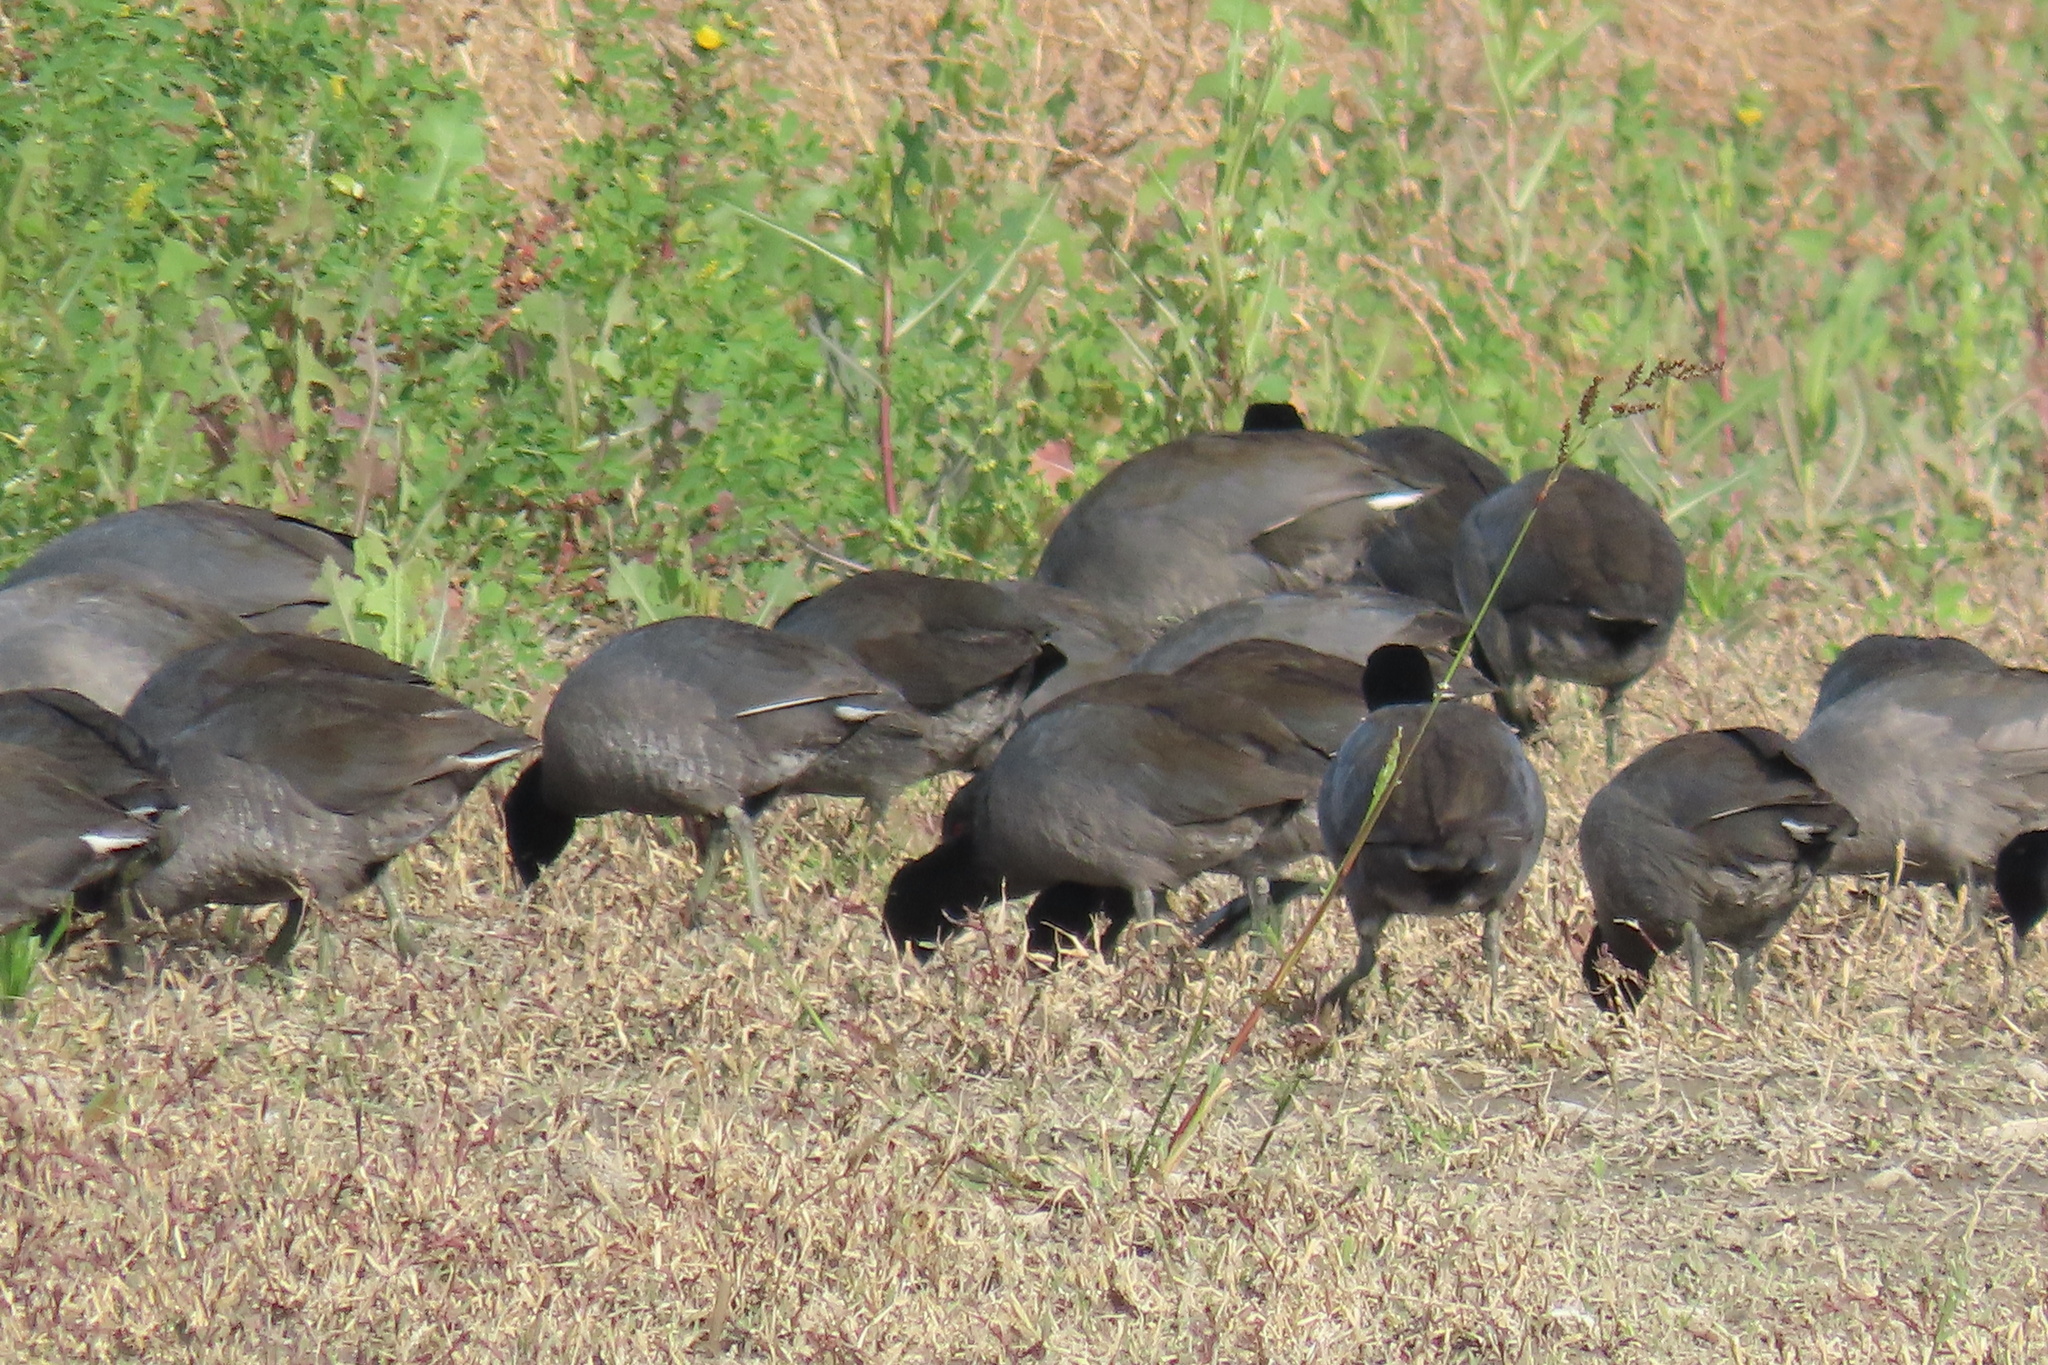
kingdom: Animalia
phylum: Chordata
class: Aves
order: Gruiformes
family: Rallidae
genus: Fulica
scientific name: Fulica americana
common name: American coot
